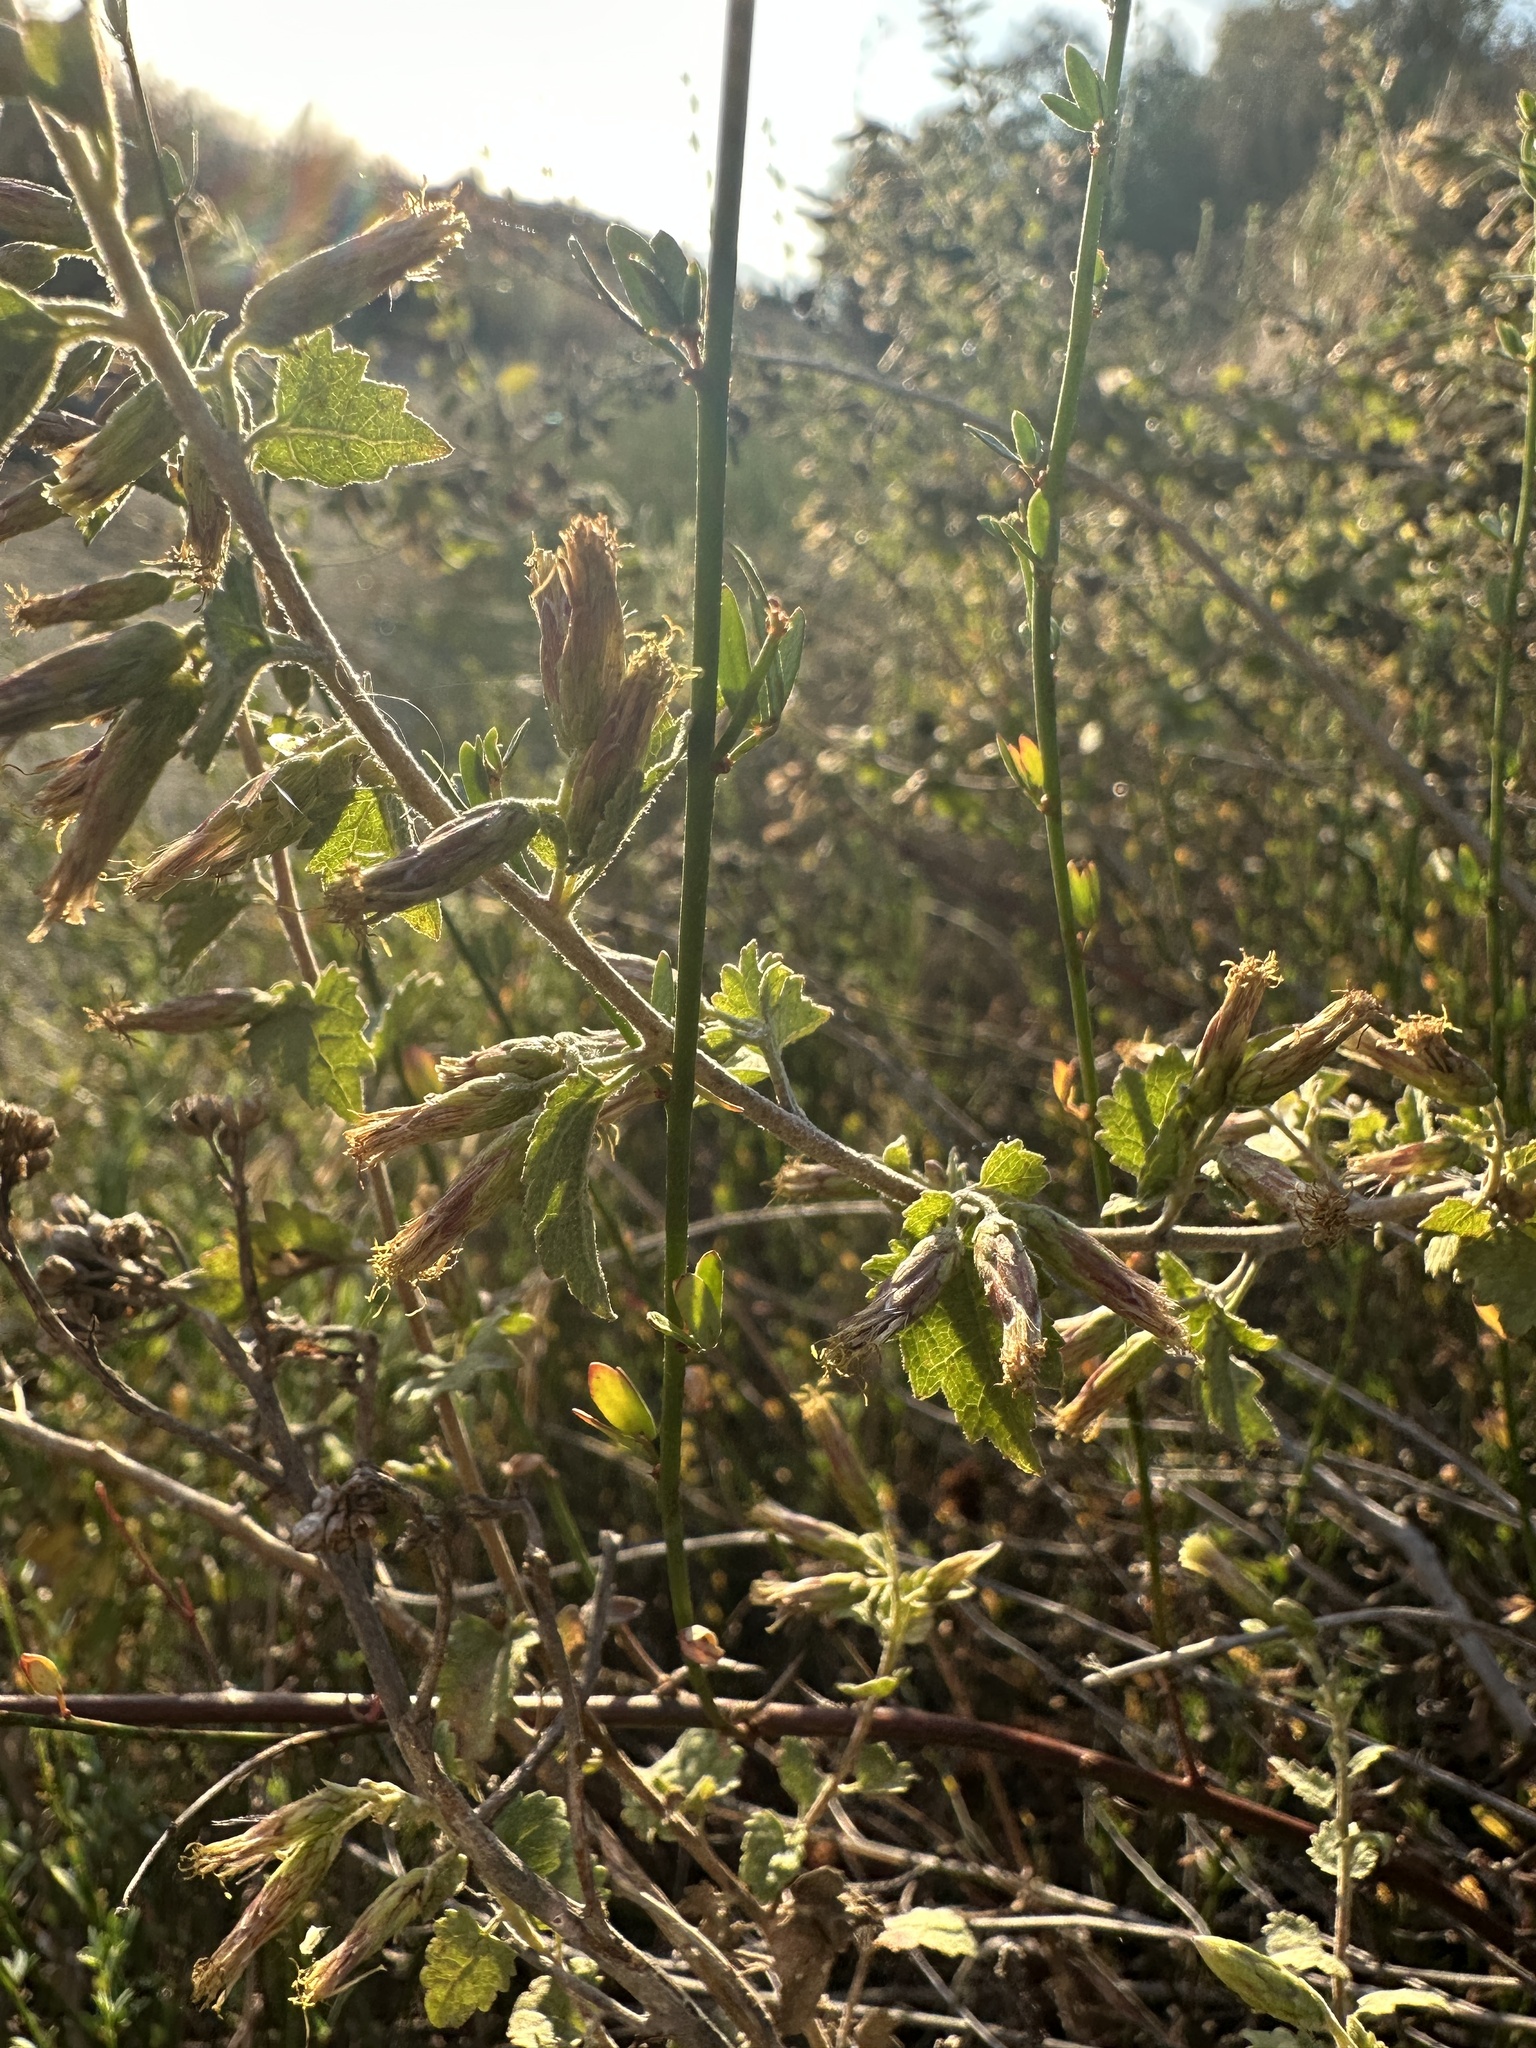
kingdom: Plantae
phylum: Tracheophyta
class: Magnoliopsida
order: Asterales
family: Asteraceae
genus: Brickellia
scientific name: Brickellia californica
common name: California brickellbush
